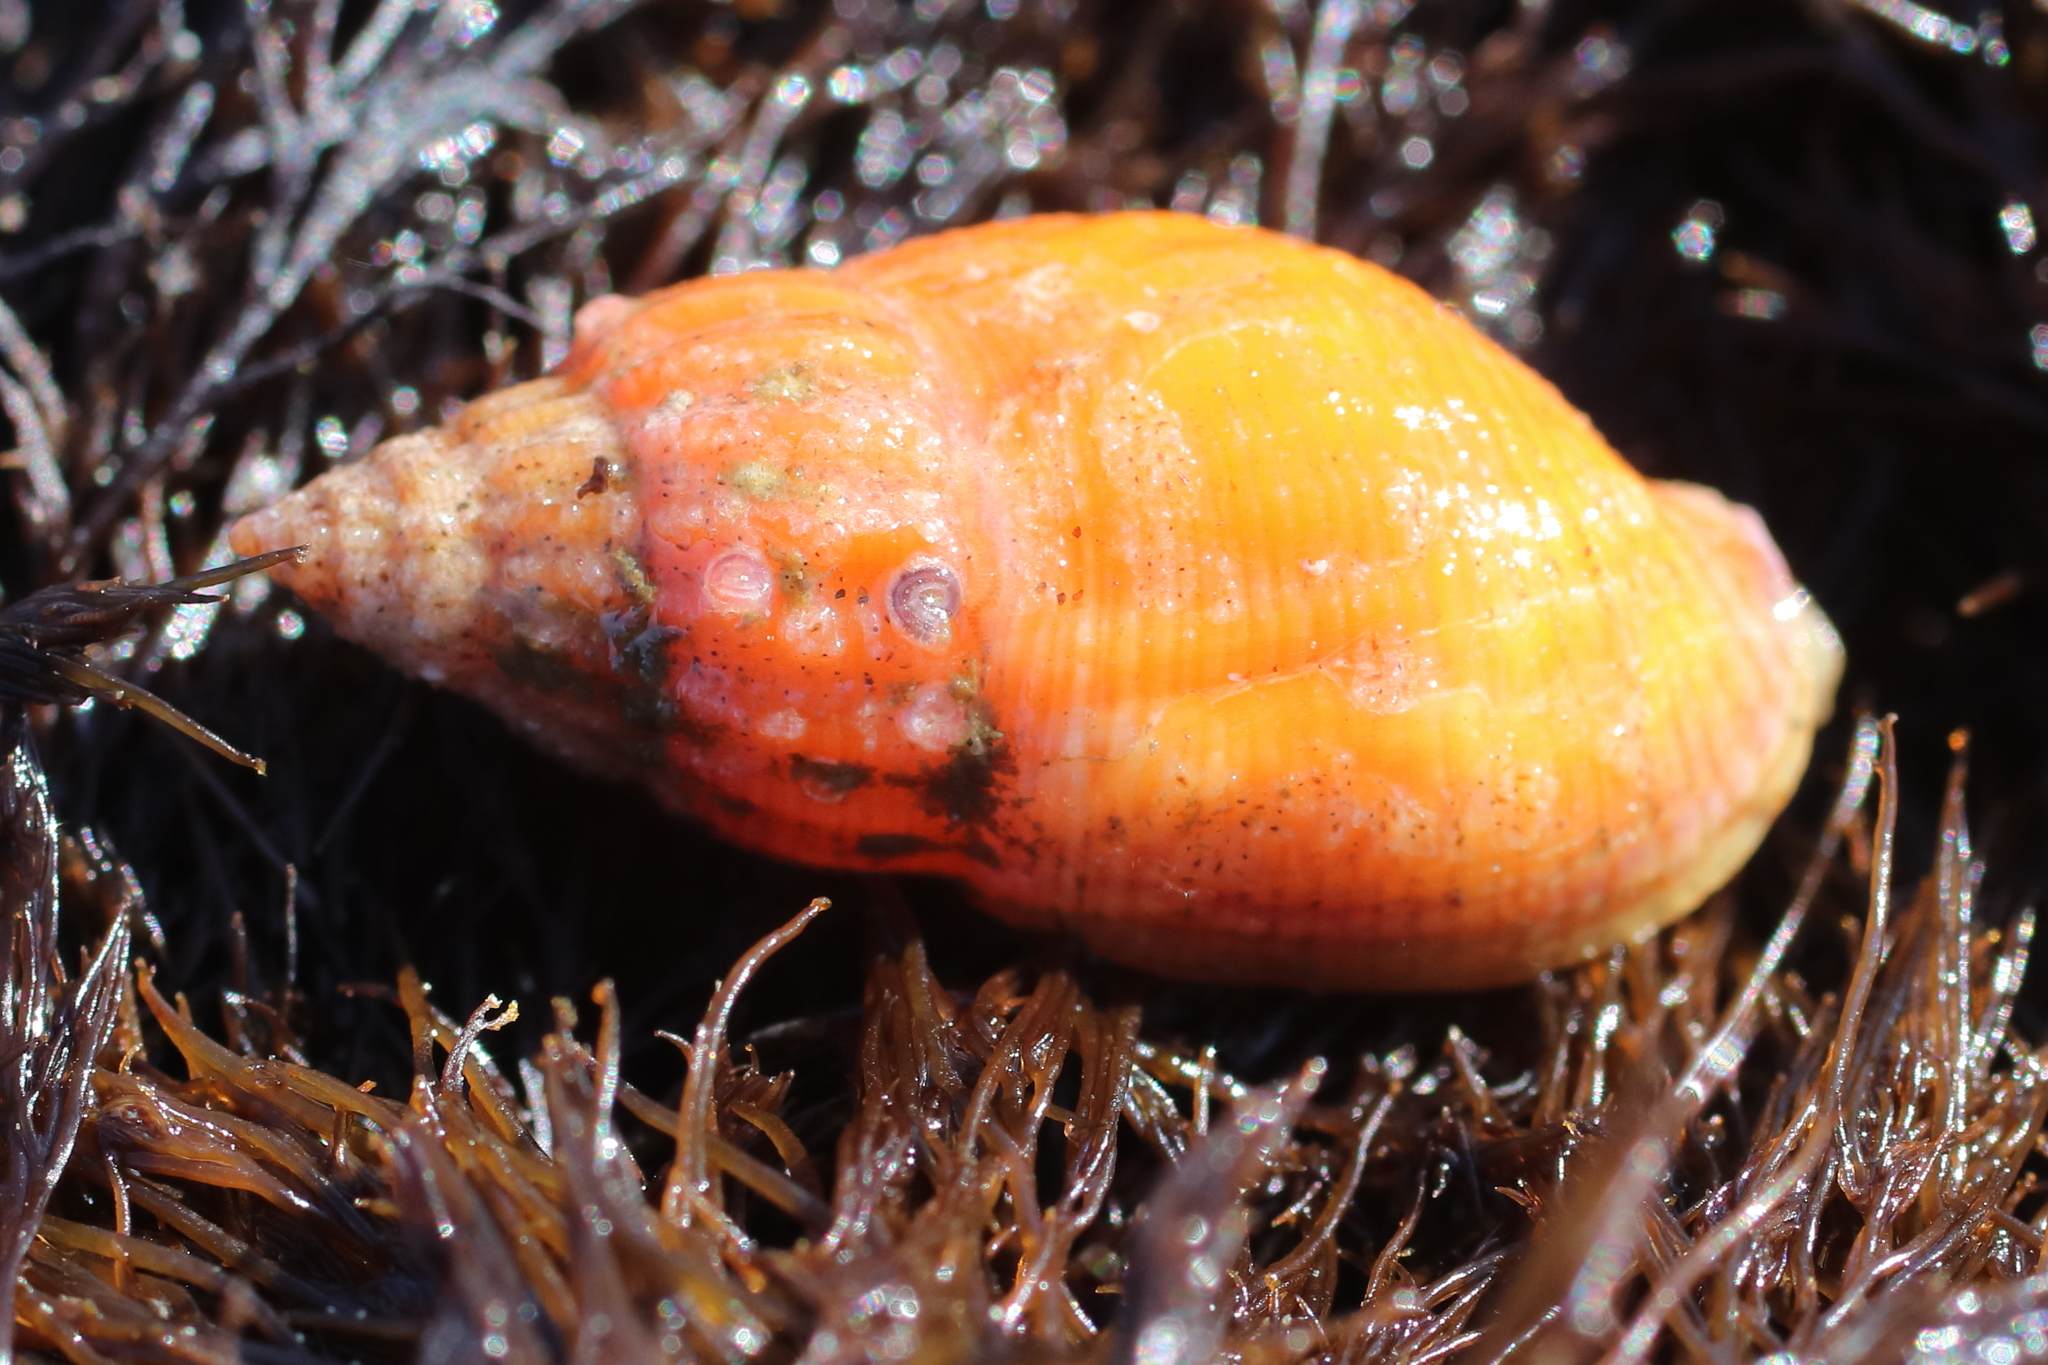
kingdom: Animalia
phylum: Mollusca
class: Gastropoda
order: Neogastropoda
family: Columbellidae
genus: Amphissa
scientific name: Amphissa columbiana
